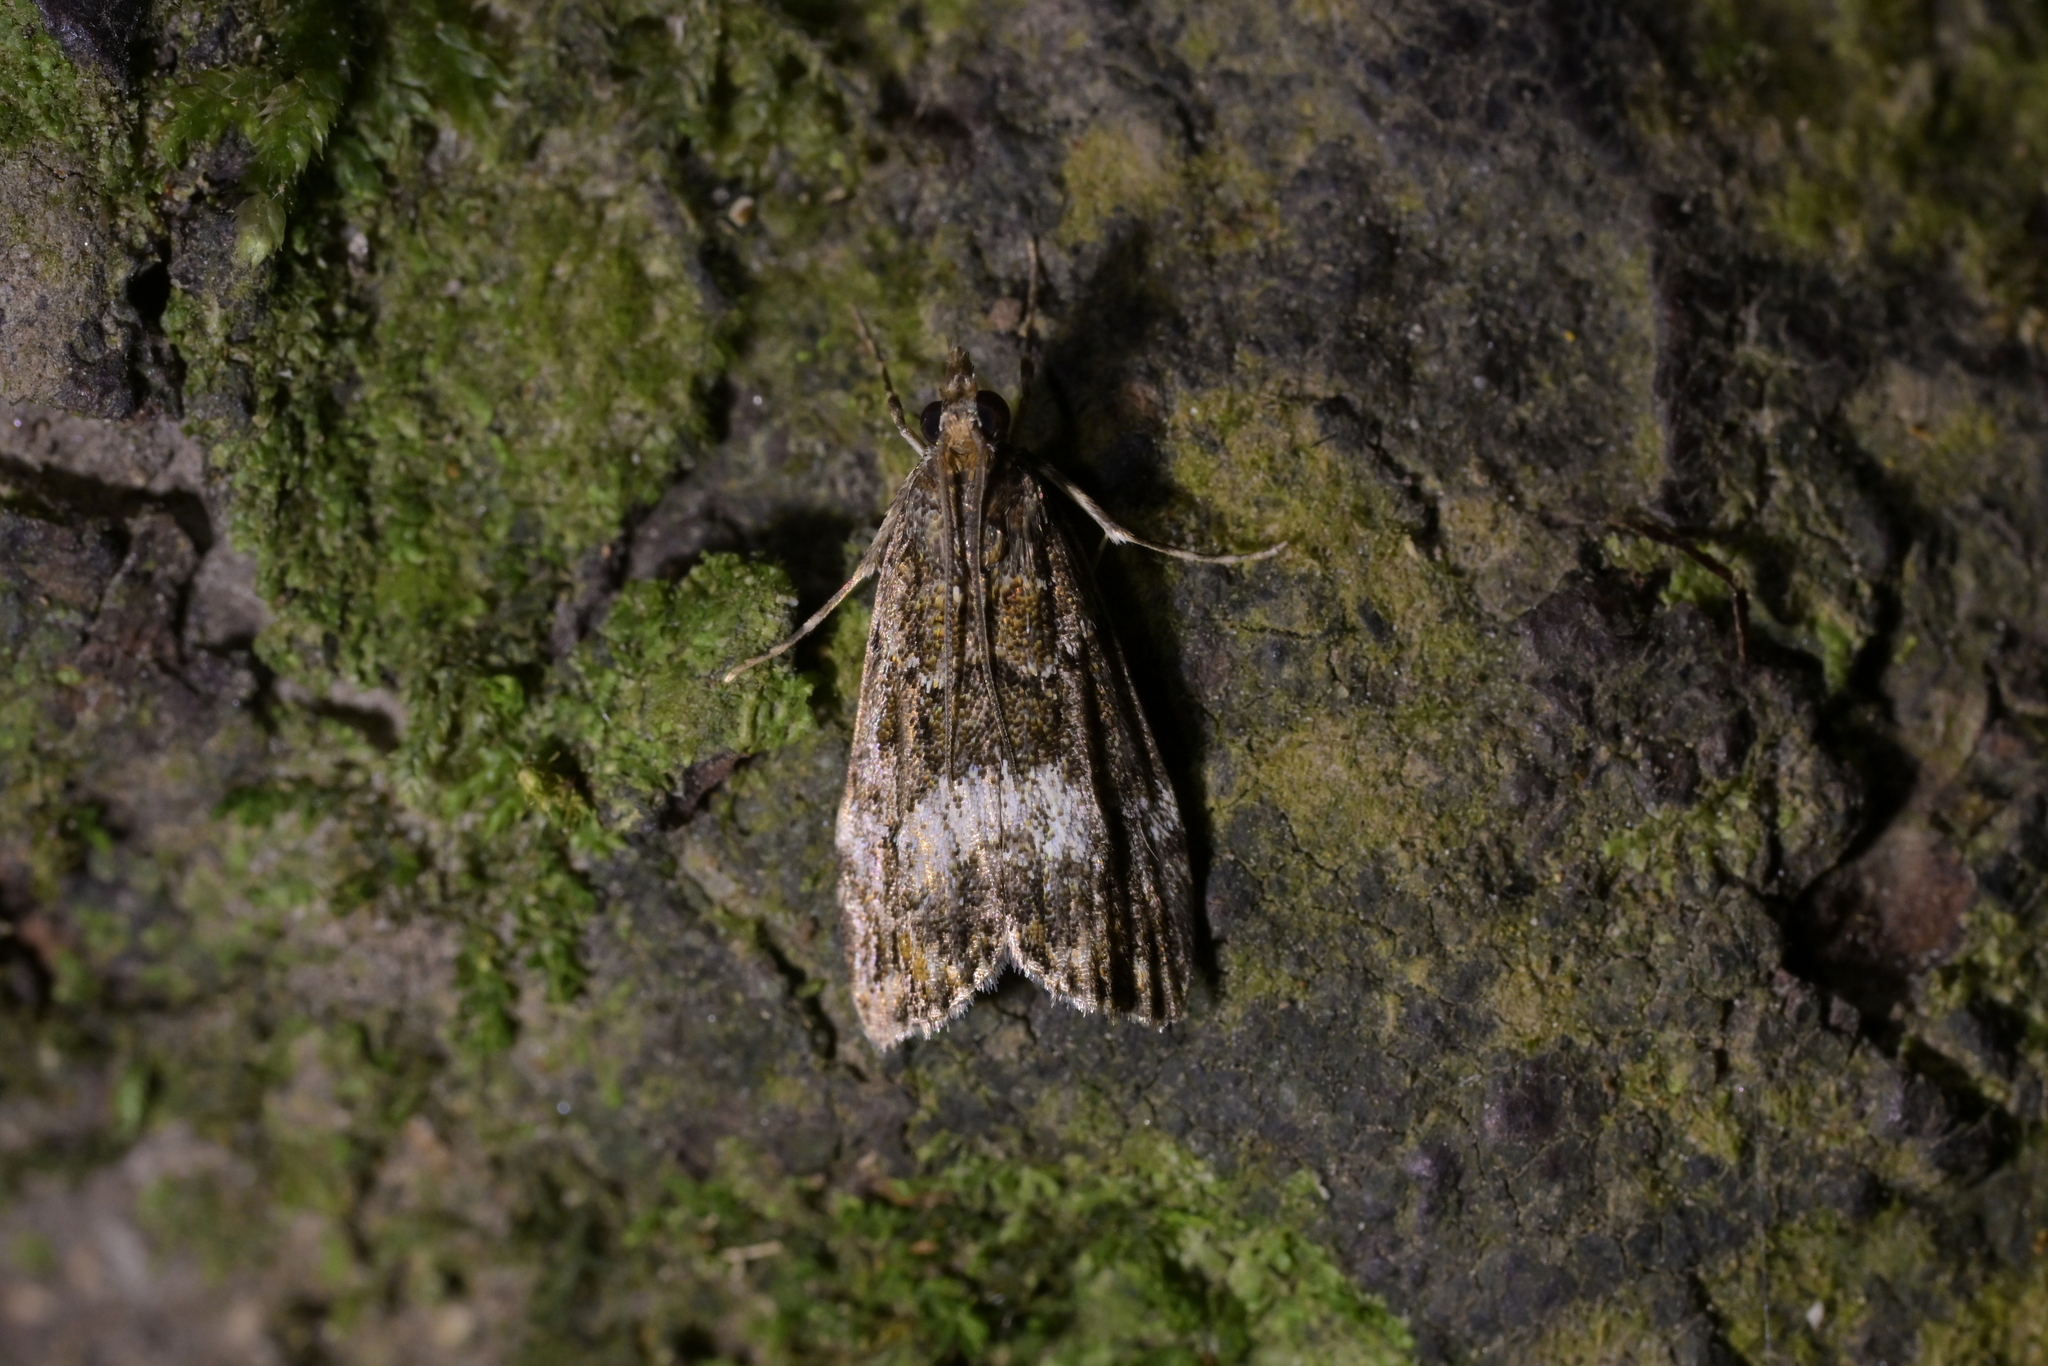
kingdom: Animalia
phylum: Arthropoda
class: Insecta
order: Lepidoptera
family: Crambidae
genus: Eudonia
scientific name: Eudonia dinodes
